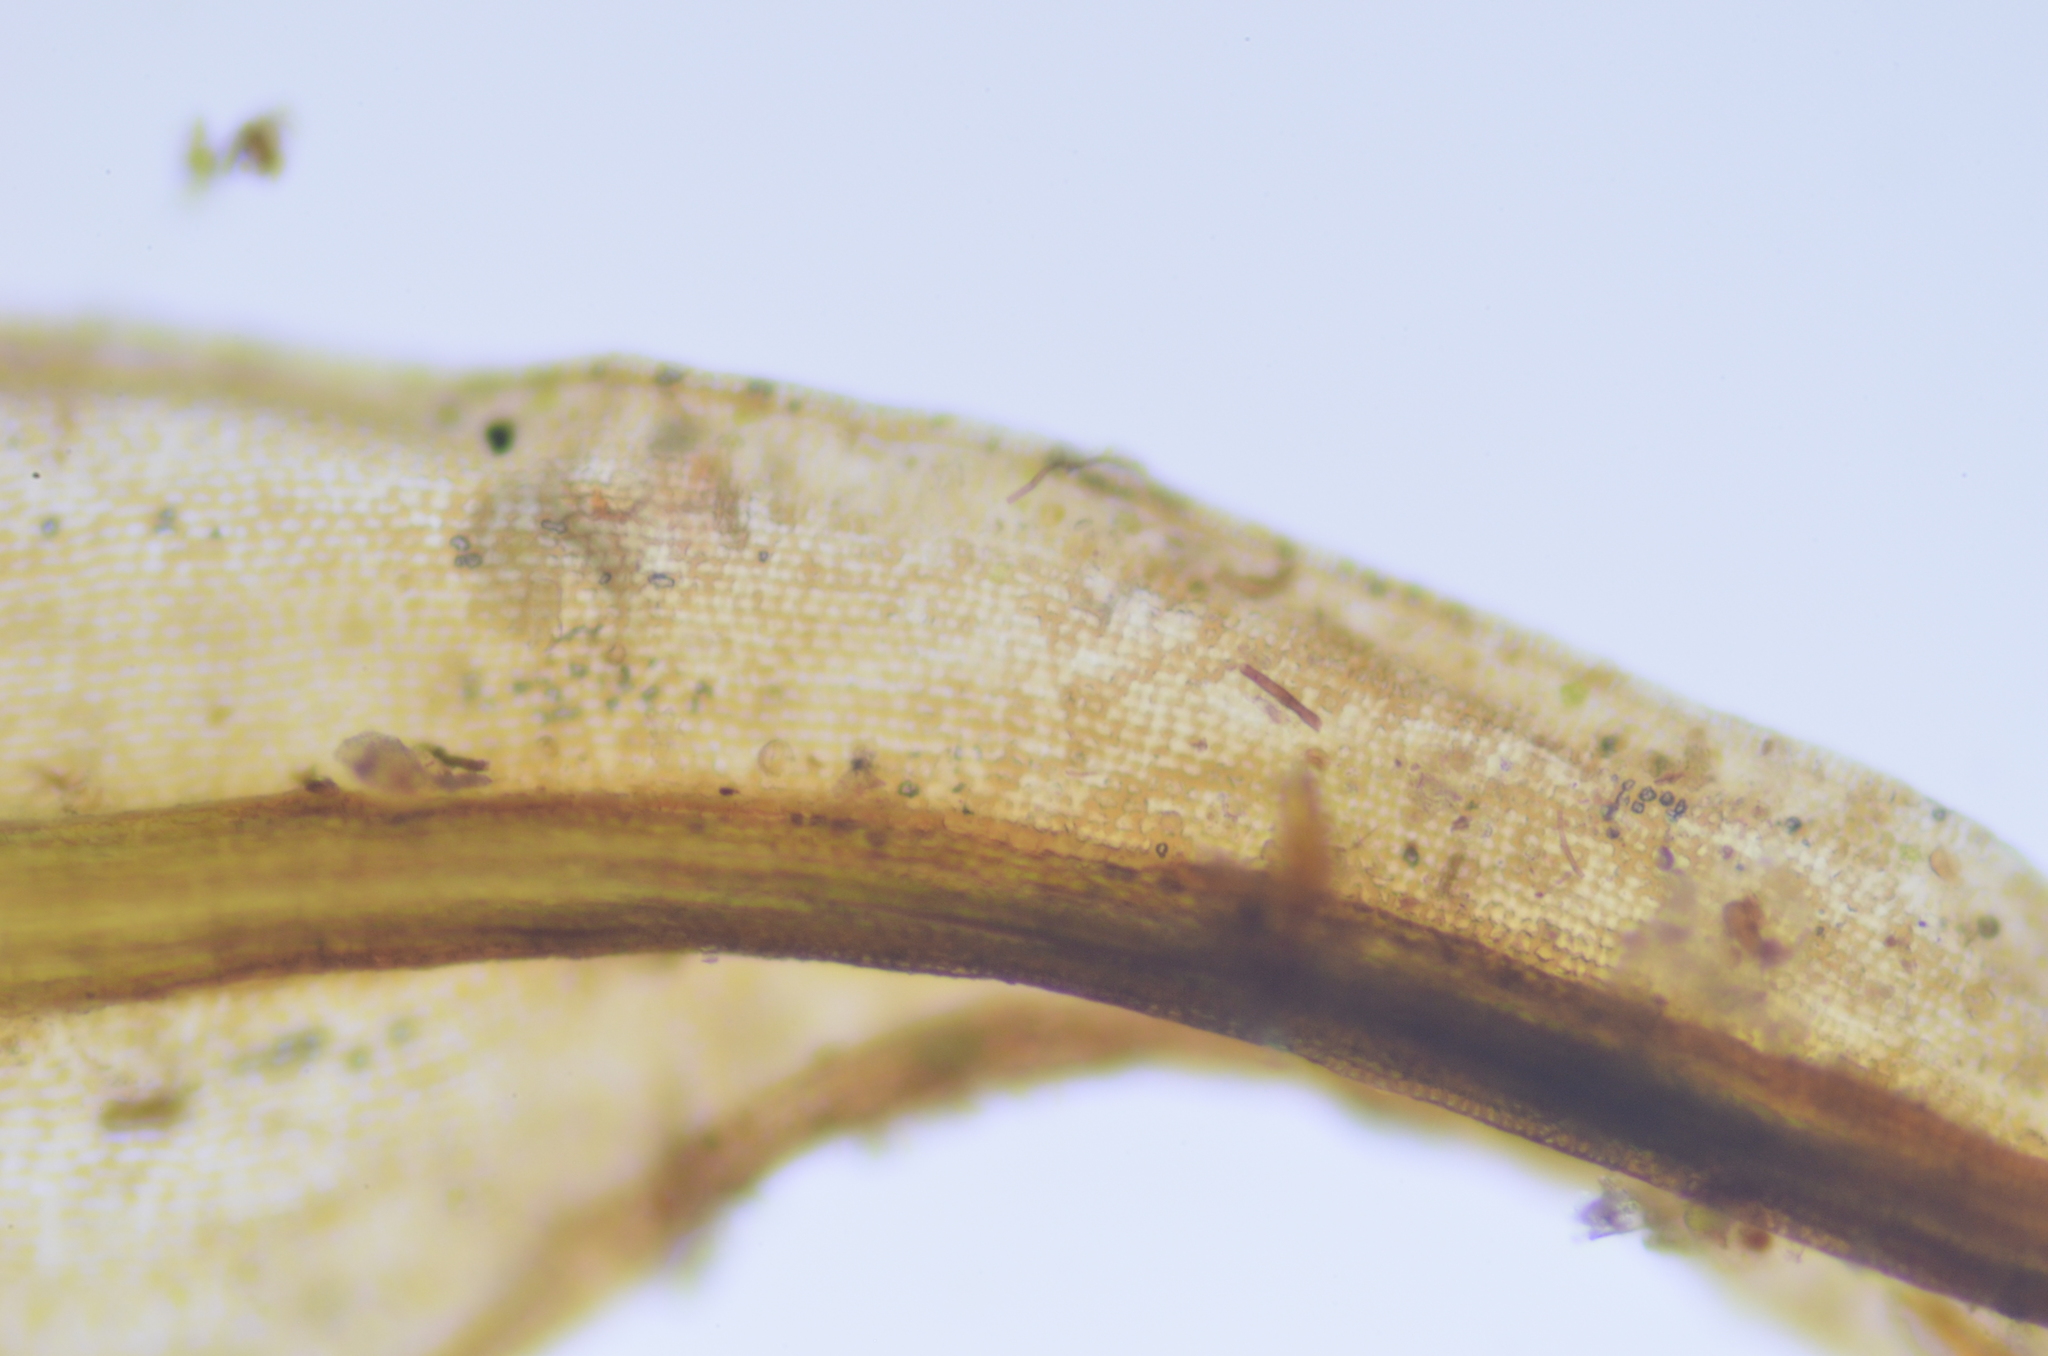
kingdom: Plantae
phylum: Bryophyta
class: Bryopsida
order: Grimmiales
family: Grimmiaceae
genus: Grimmia
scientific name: Grimmia ramondii
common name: Spreading-leaved grimmia
